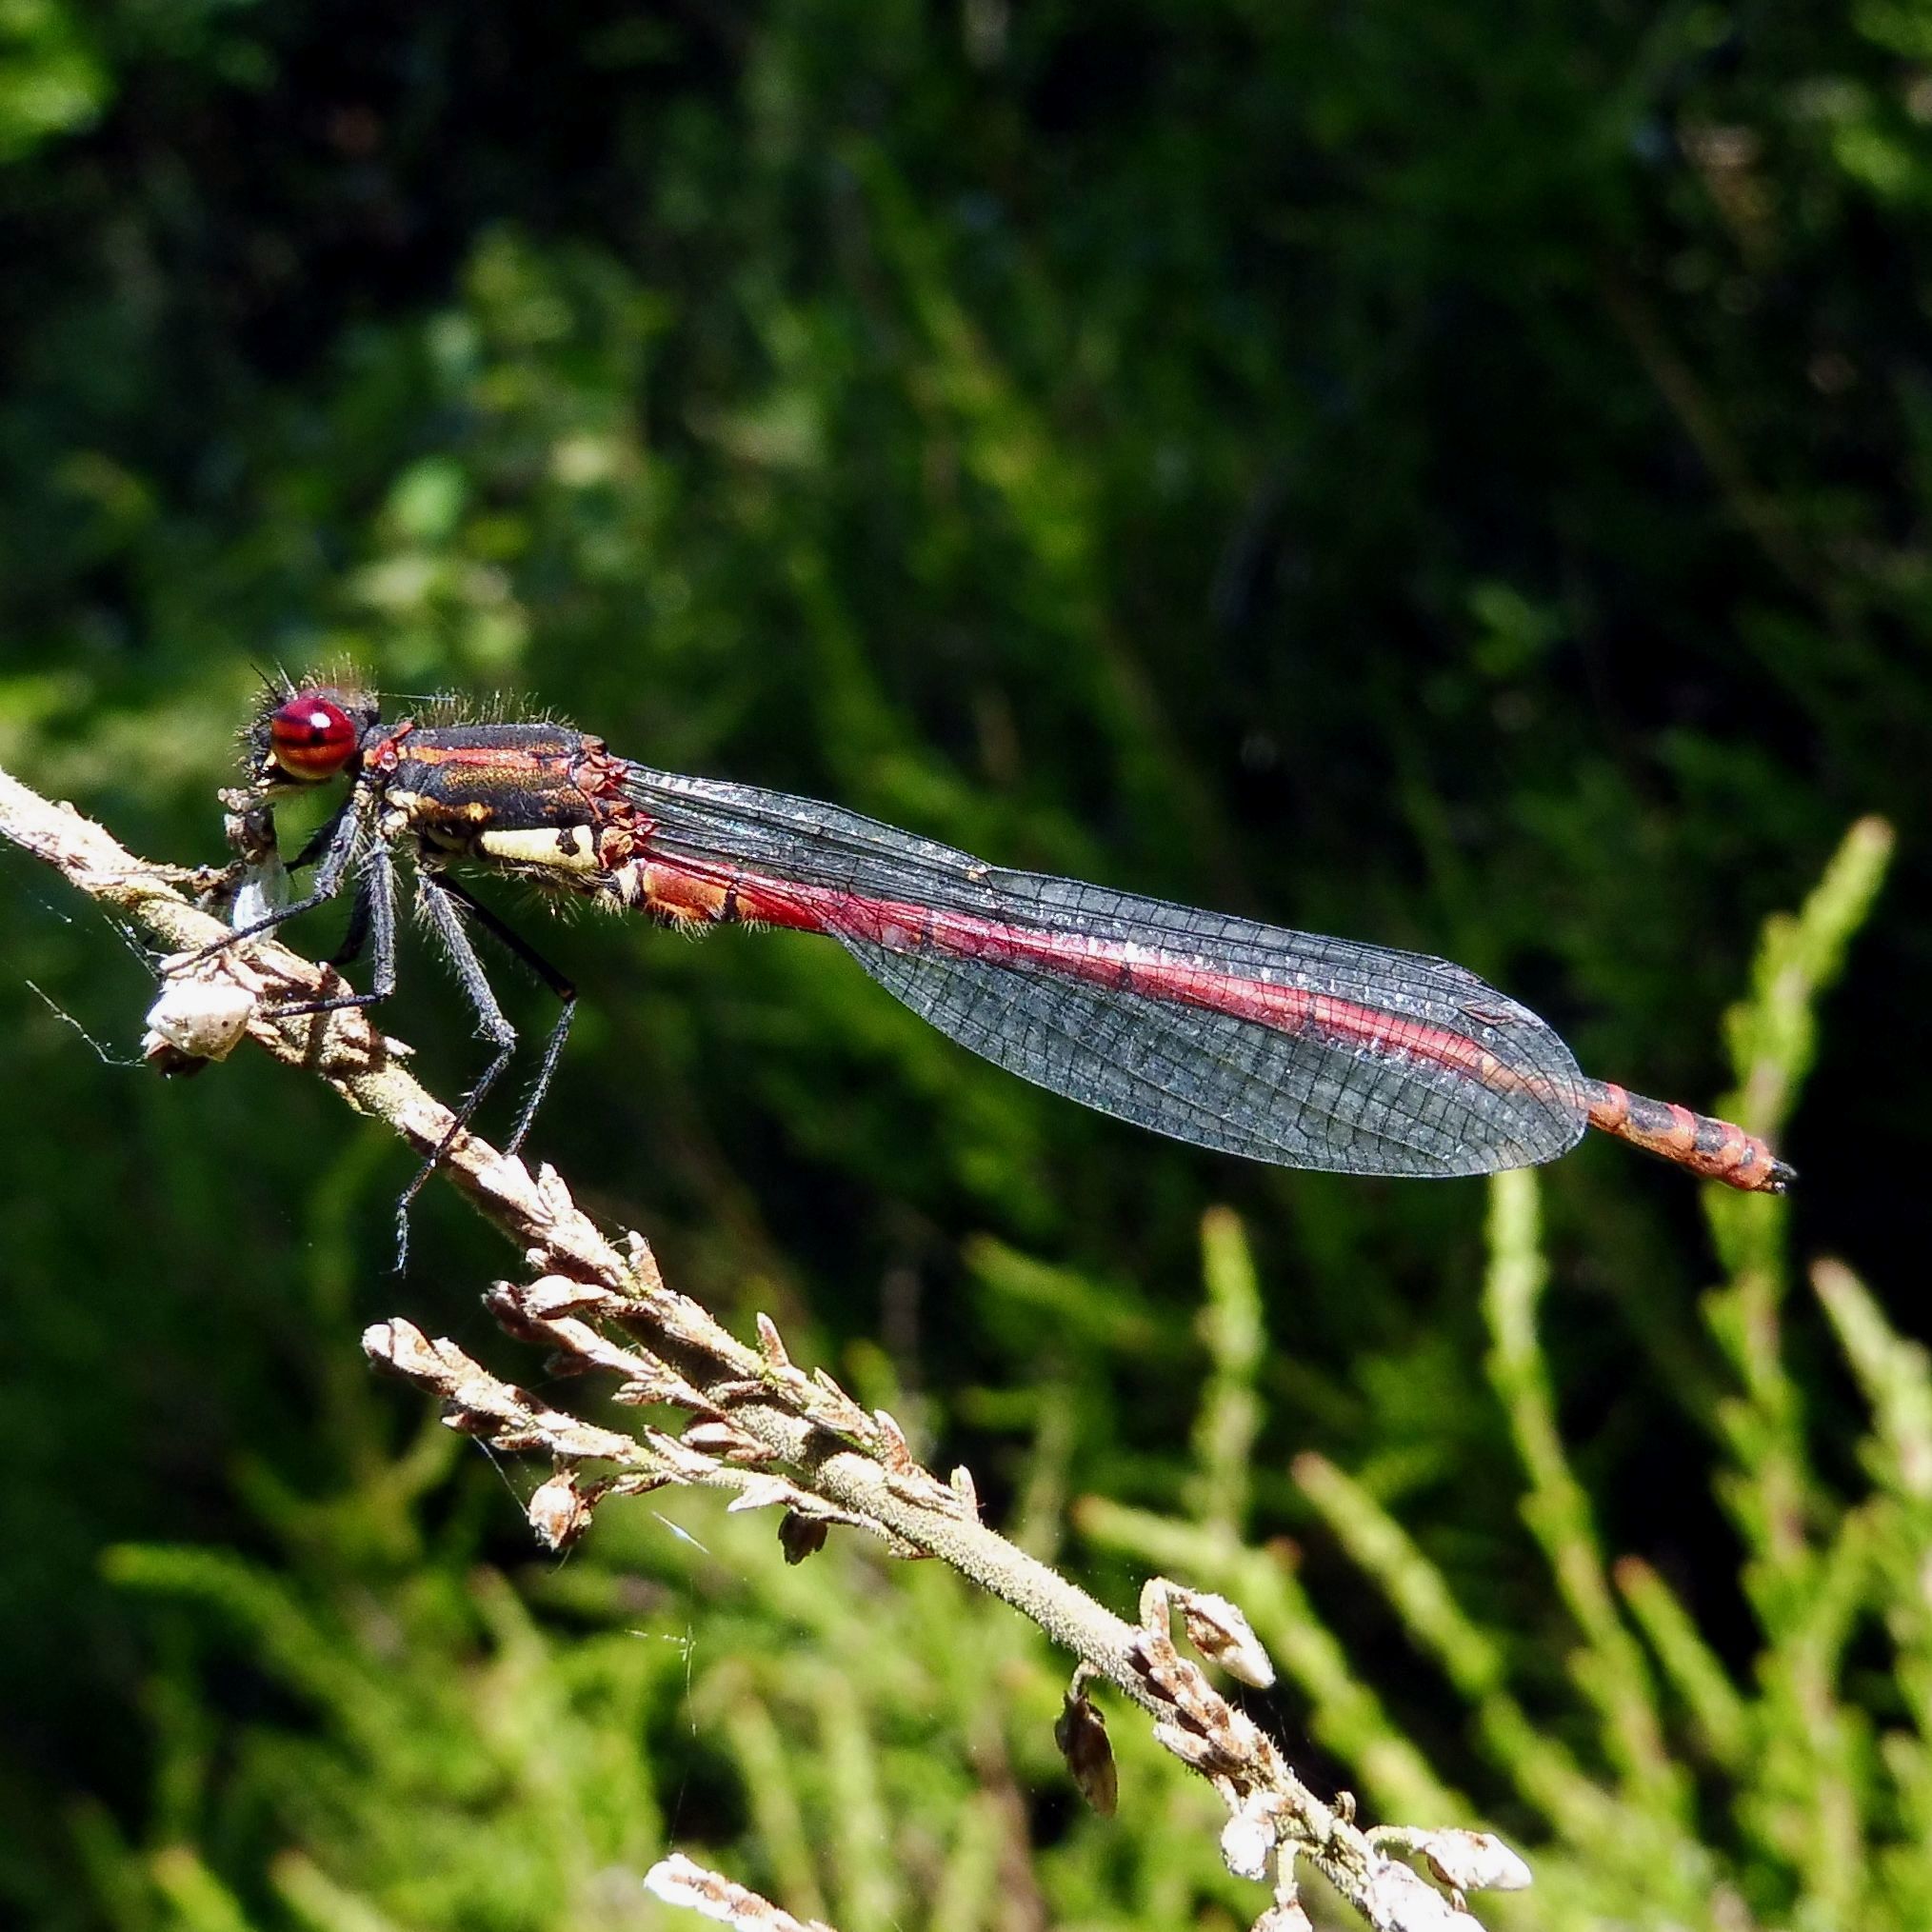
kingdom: Animalia
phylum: Arthropoda
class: Insecta
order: Odonata
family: Coenagrionidae
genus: Pyrrhosoma
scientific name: Pyrrhosoma nymphula
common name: Large red damsel
